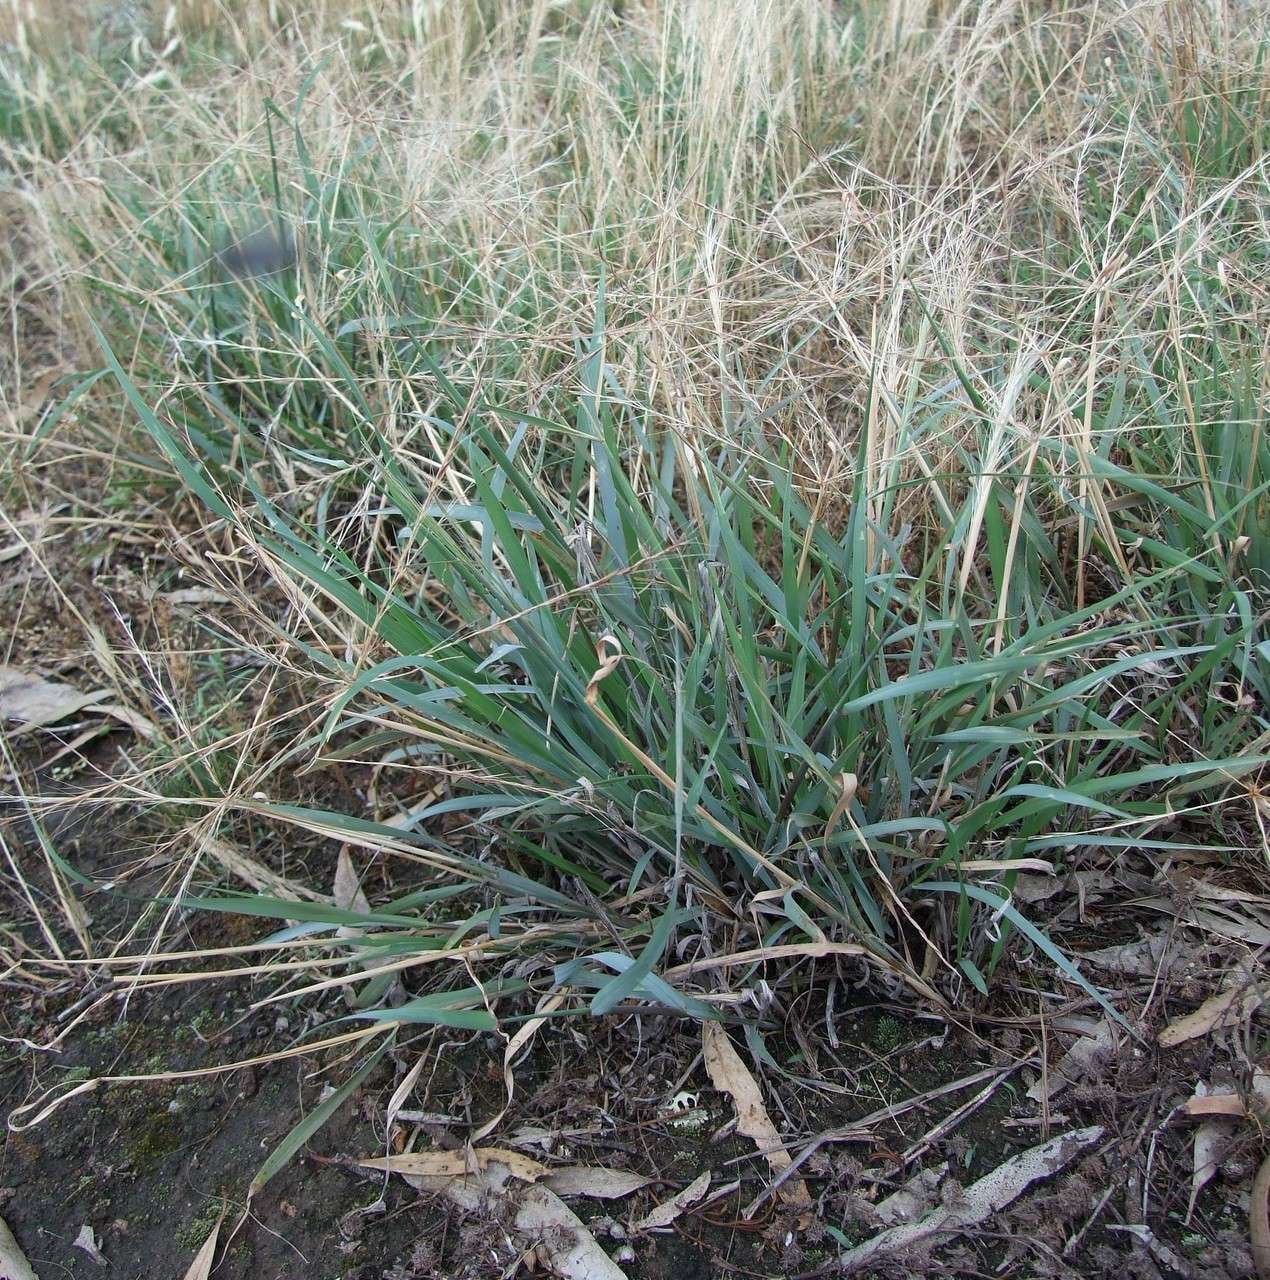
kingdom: Plantae
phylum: Tracheophyta
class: Liliopsida
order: Poales
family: Poaceae
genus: Enteropogon
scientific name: Enteropogon acicularis
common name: Curly windmill grass
